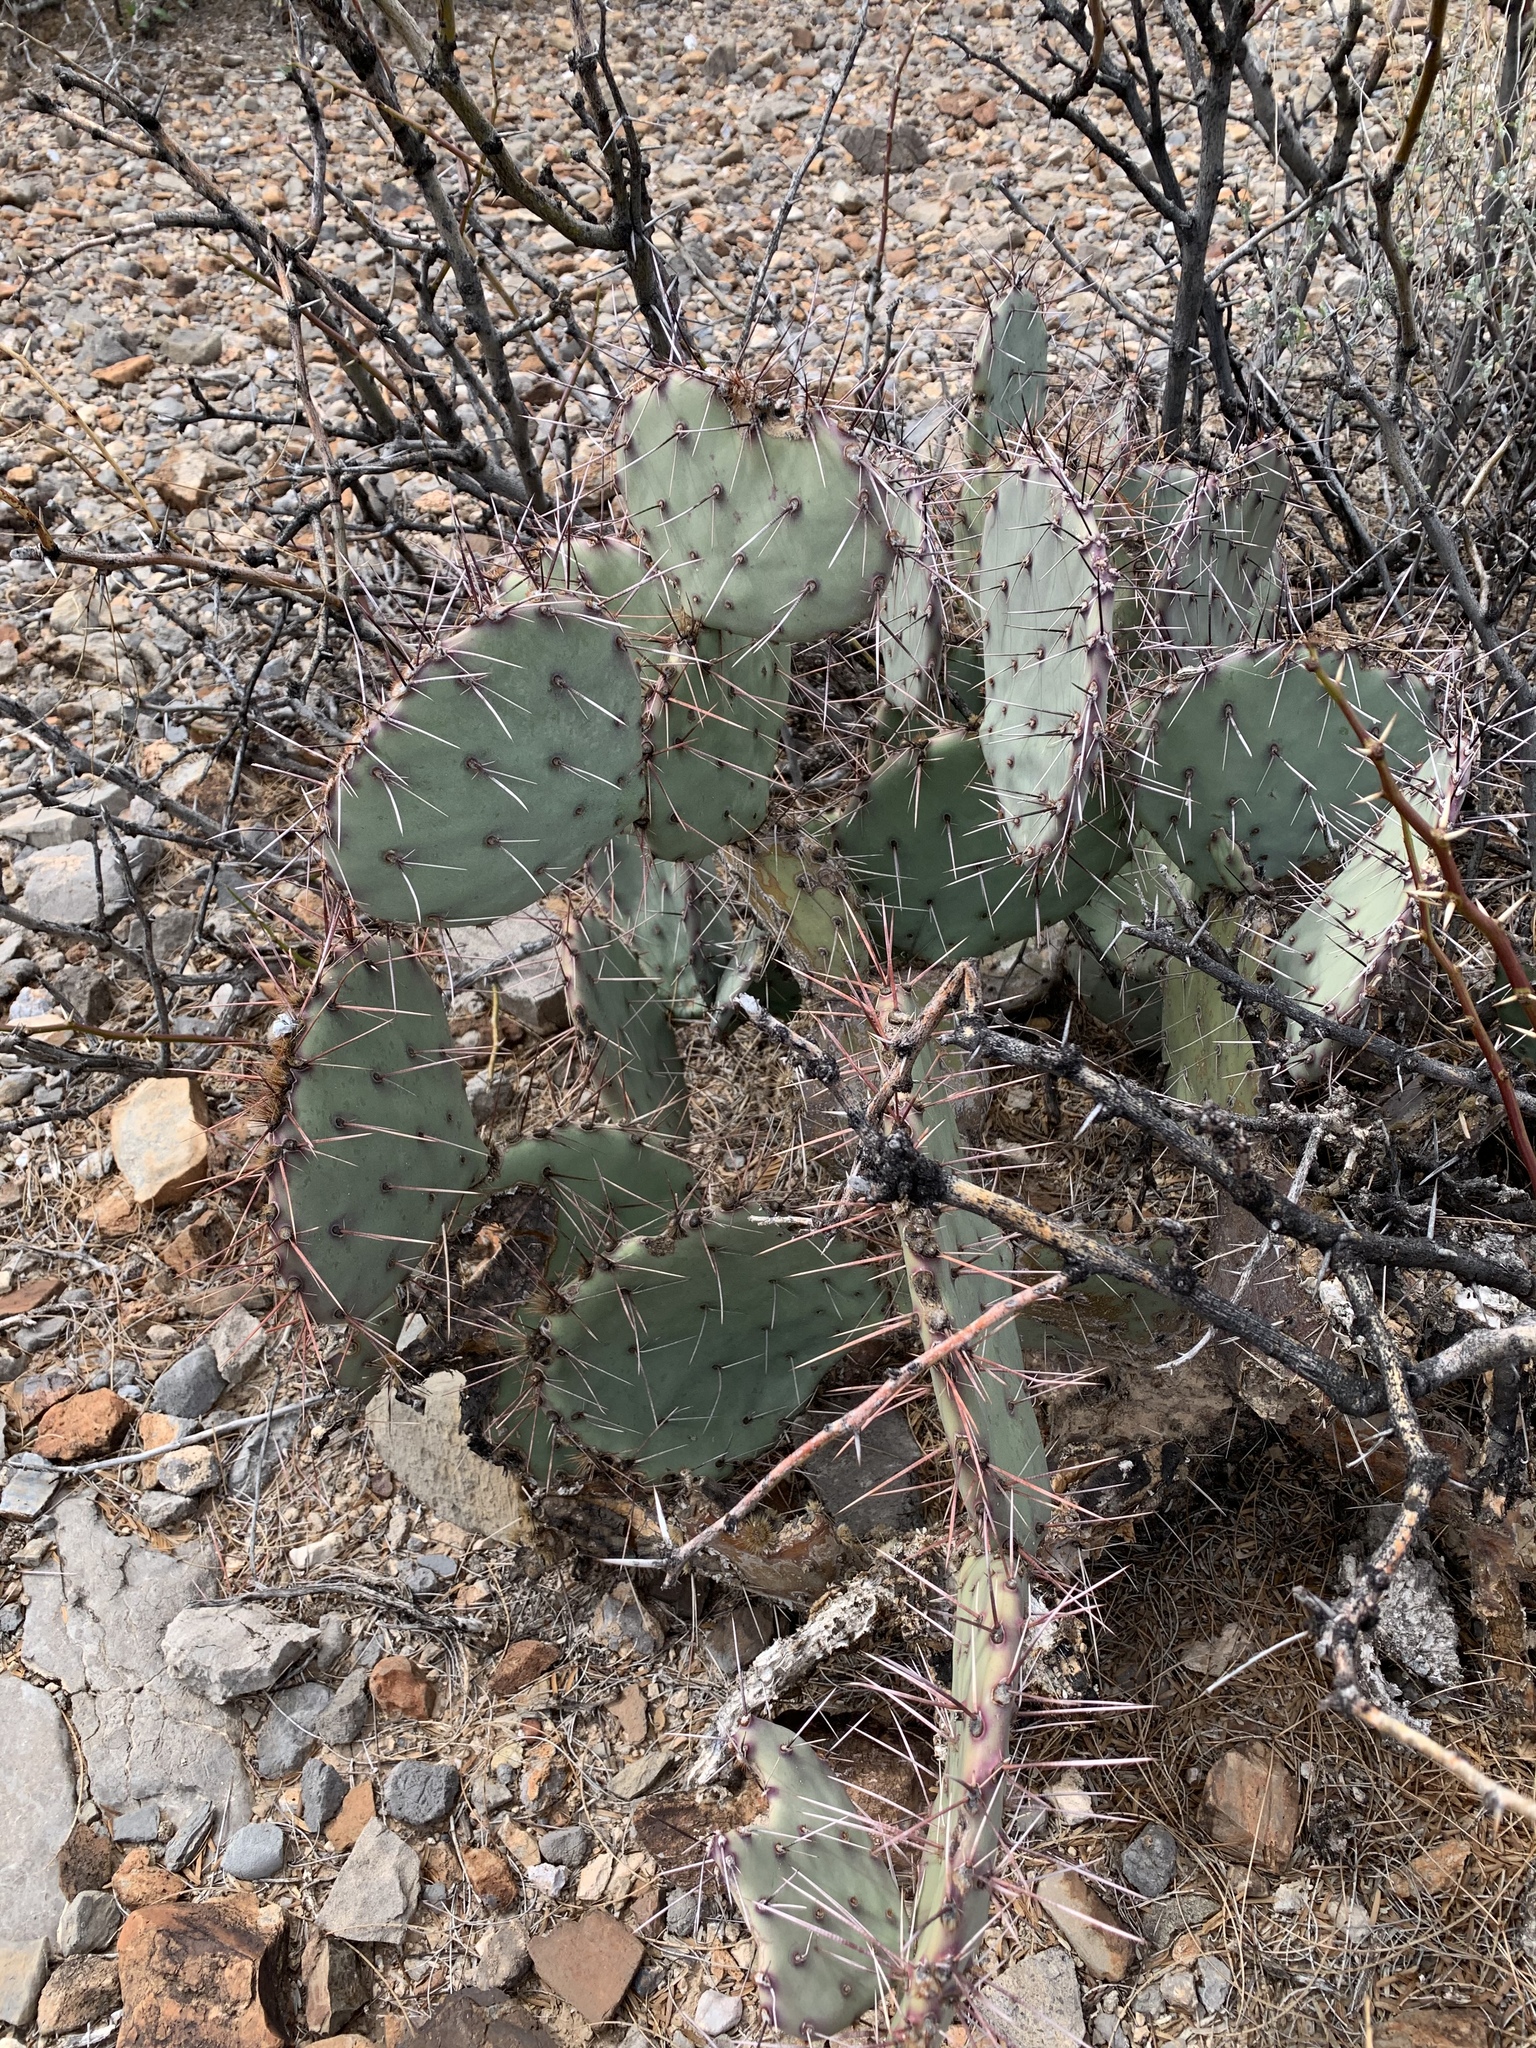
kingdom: Plantae
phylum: Tracheophyta
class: Magnoliopsida
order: Caryophyllales
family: Cactaceae
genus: Opuntia
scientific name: Opuntia macrocentra
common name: Purple prickly-pear
